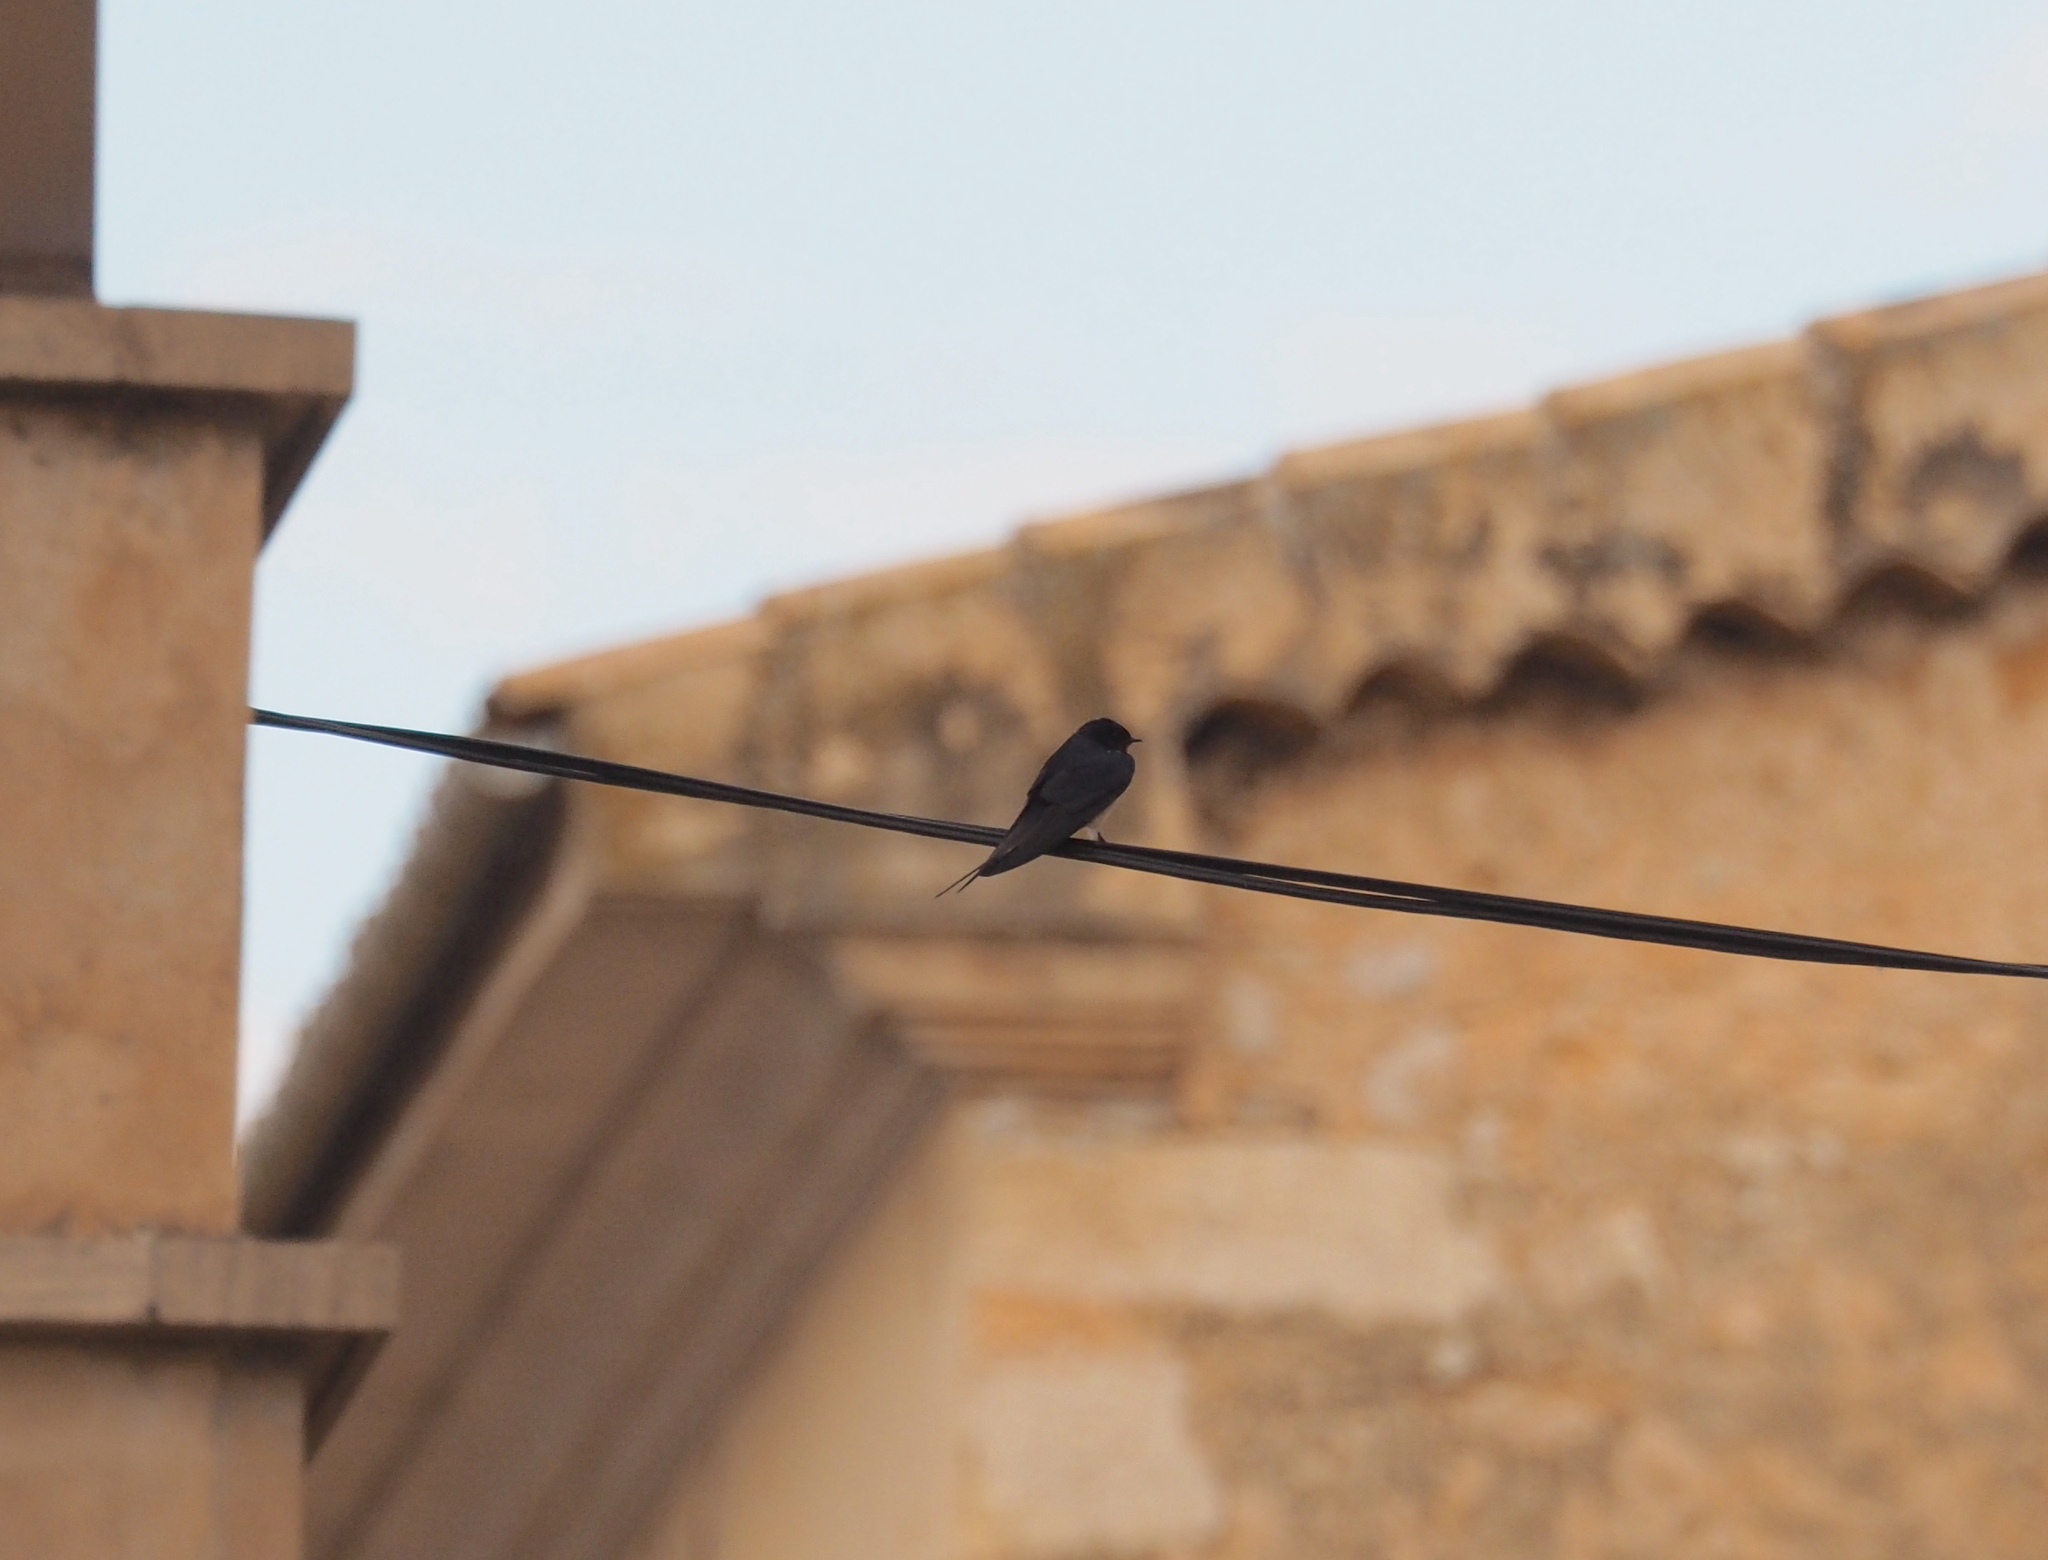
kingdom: Animalia
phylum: Chordata
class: Aves
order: Passeriformes
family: Hirundinidae
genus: Hirundo
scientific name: Hirundo rustica
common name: Barn swallow
